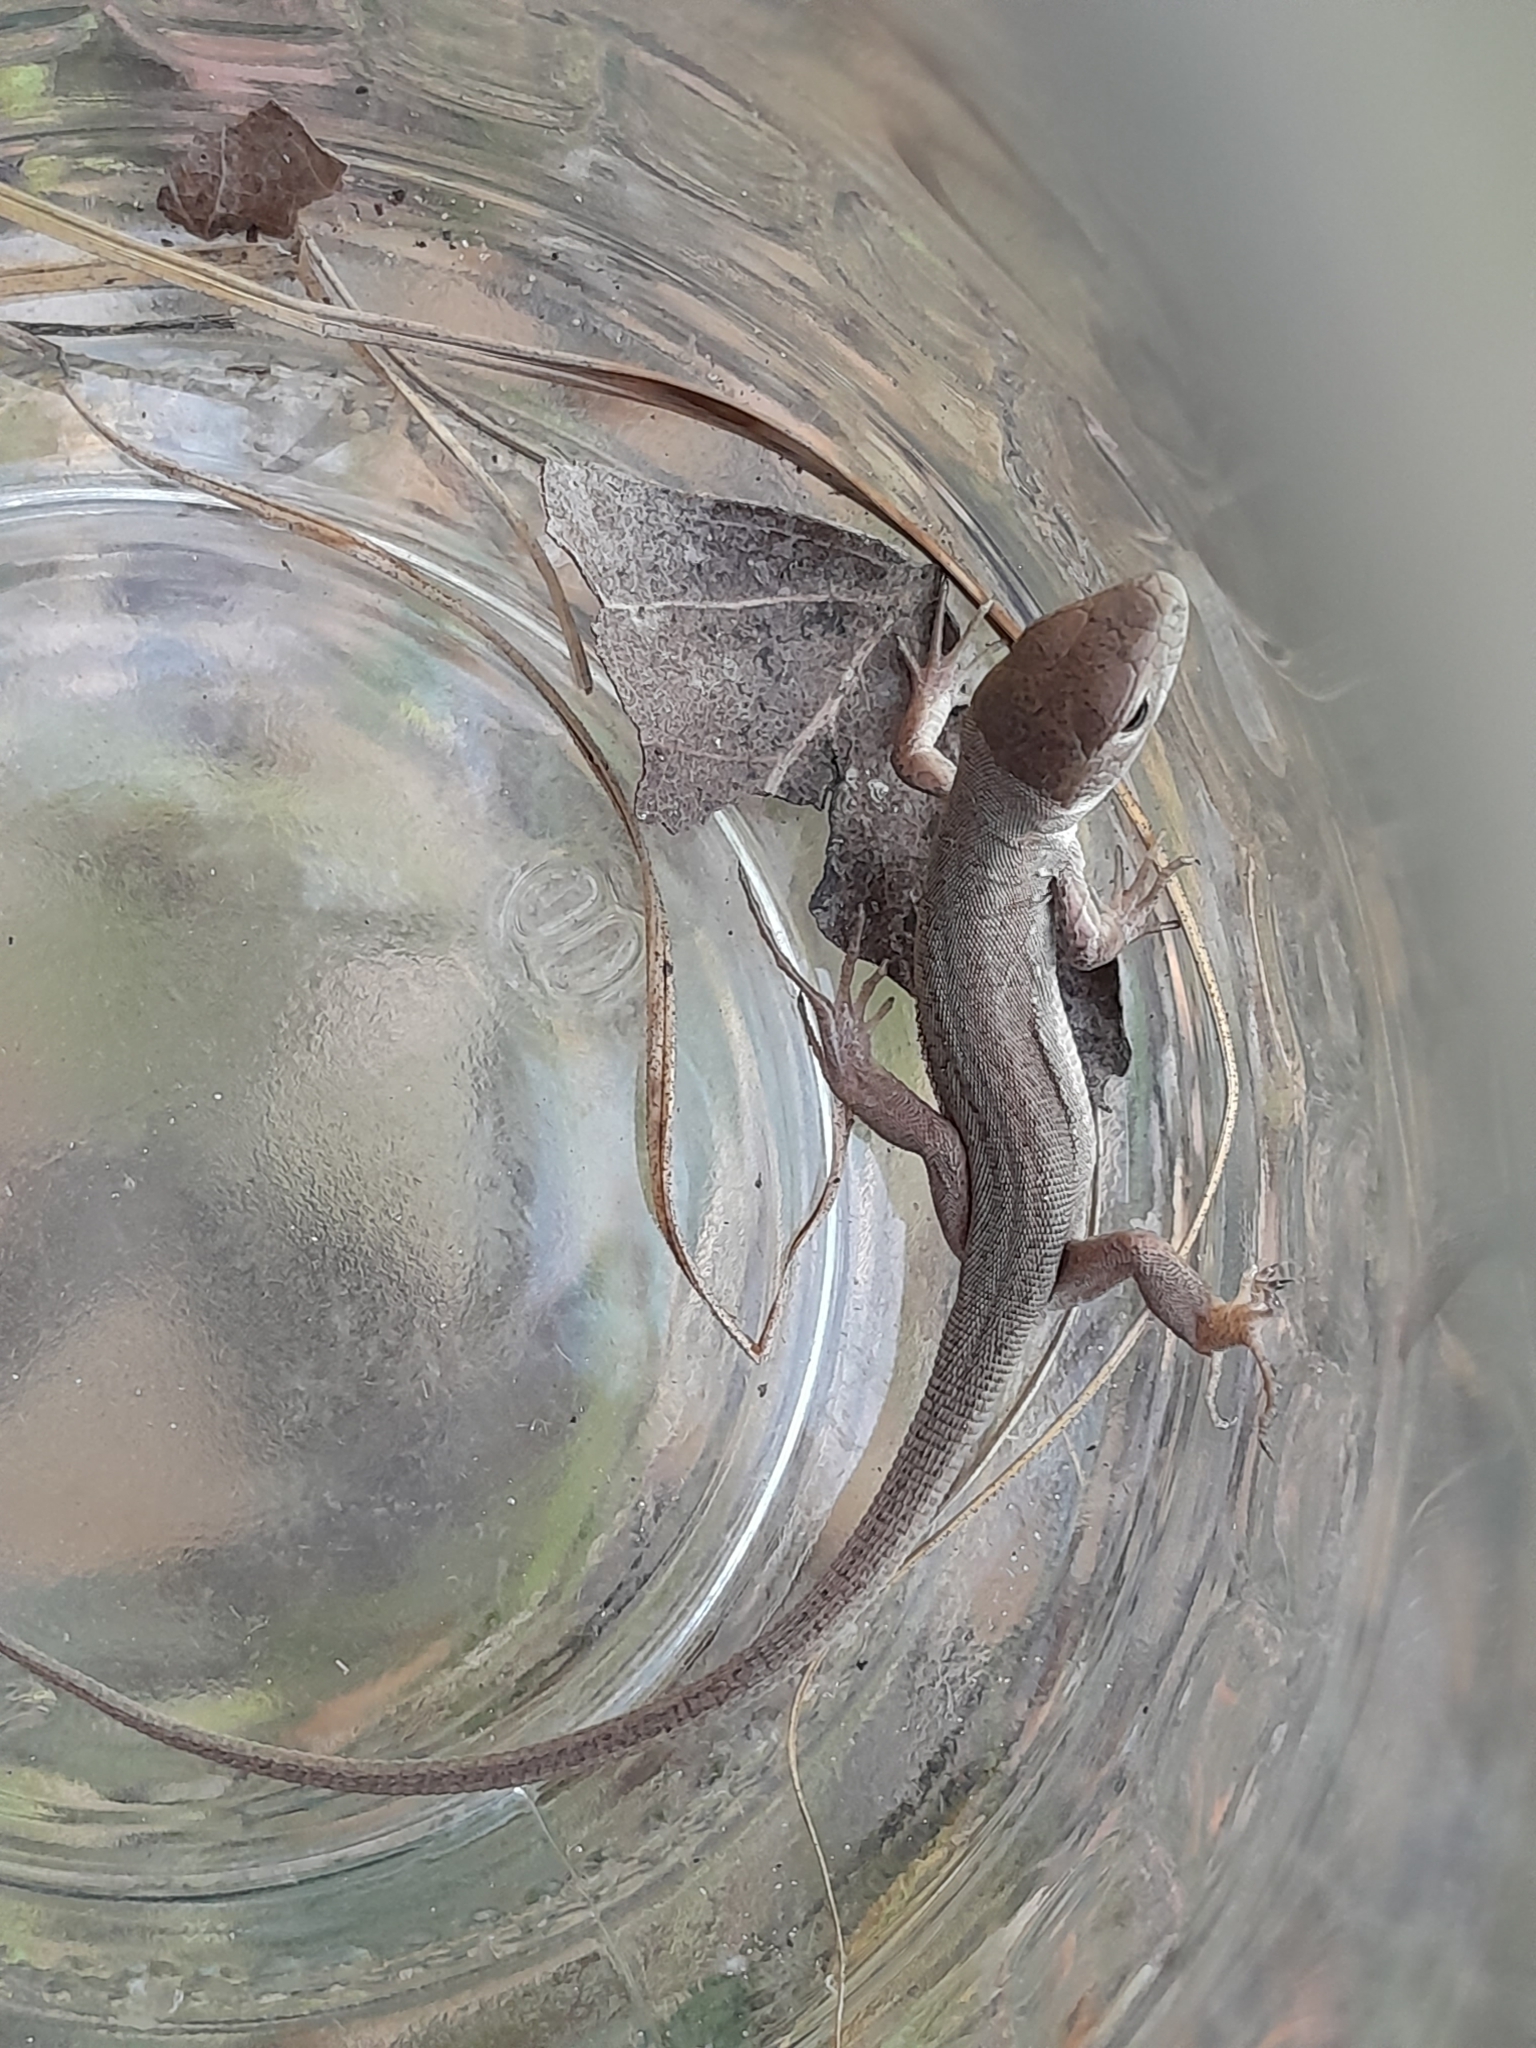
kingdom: Animalia
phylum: Chordata
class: Squamata
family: Lacertidae
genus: Lacerta
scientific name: Lacerta viridis
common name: European green lizard
